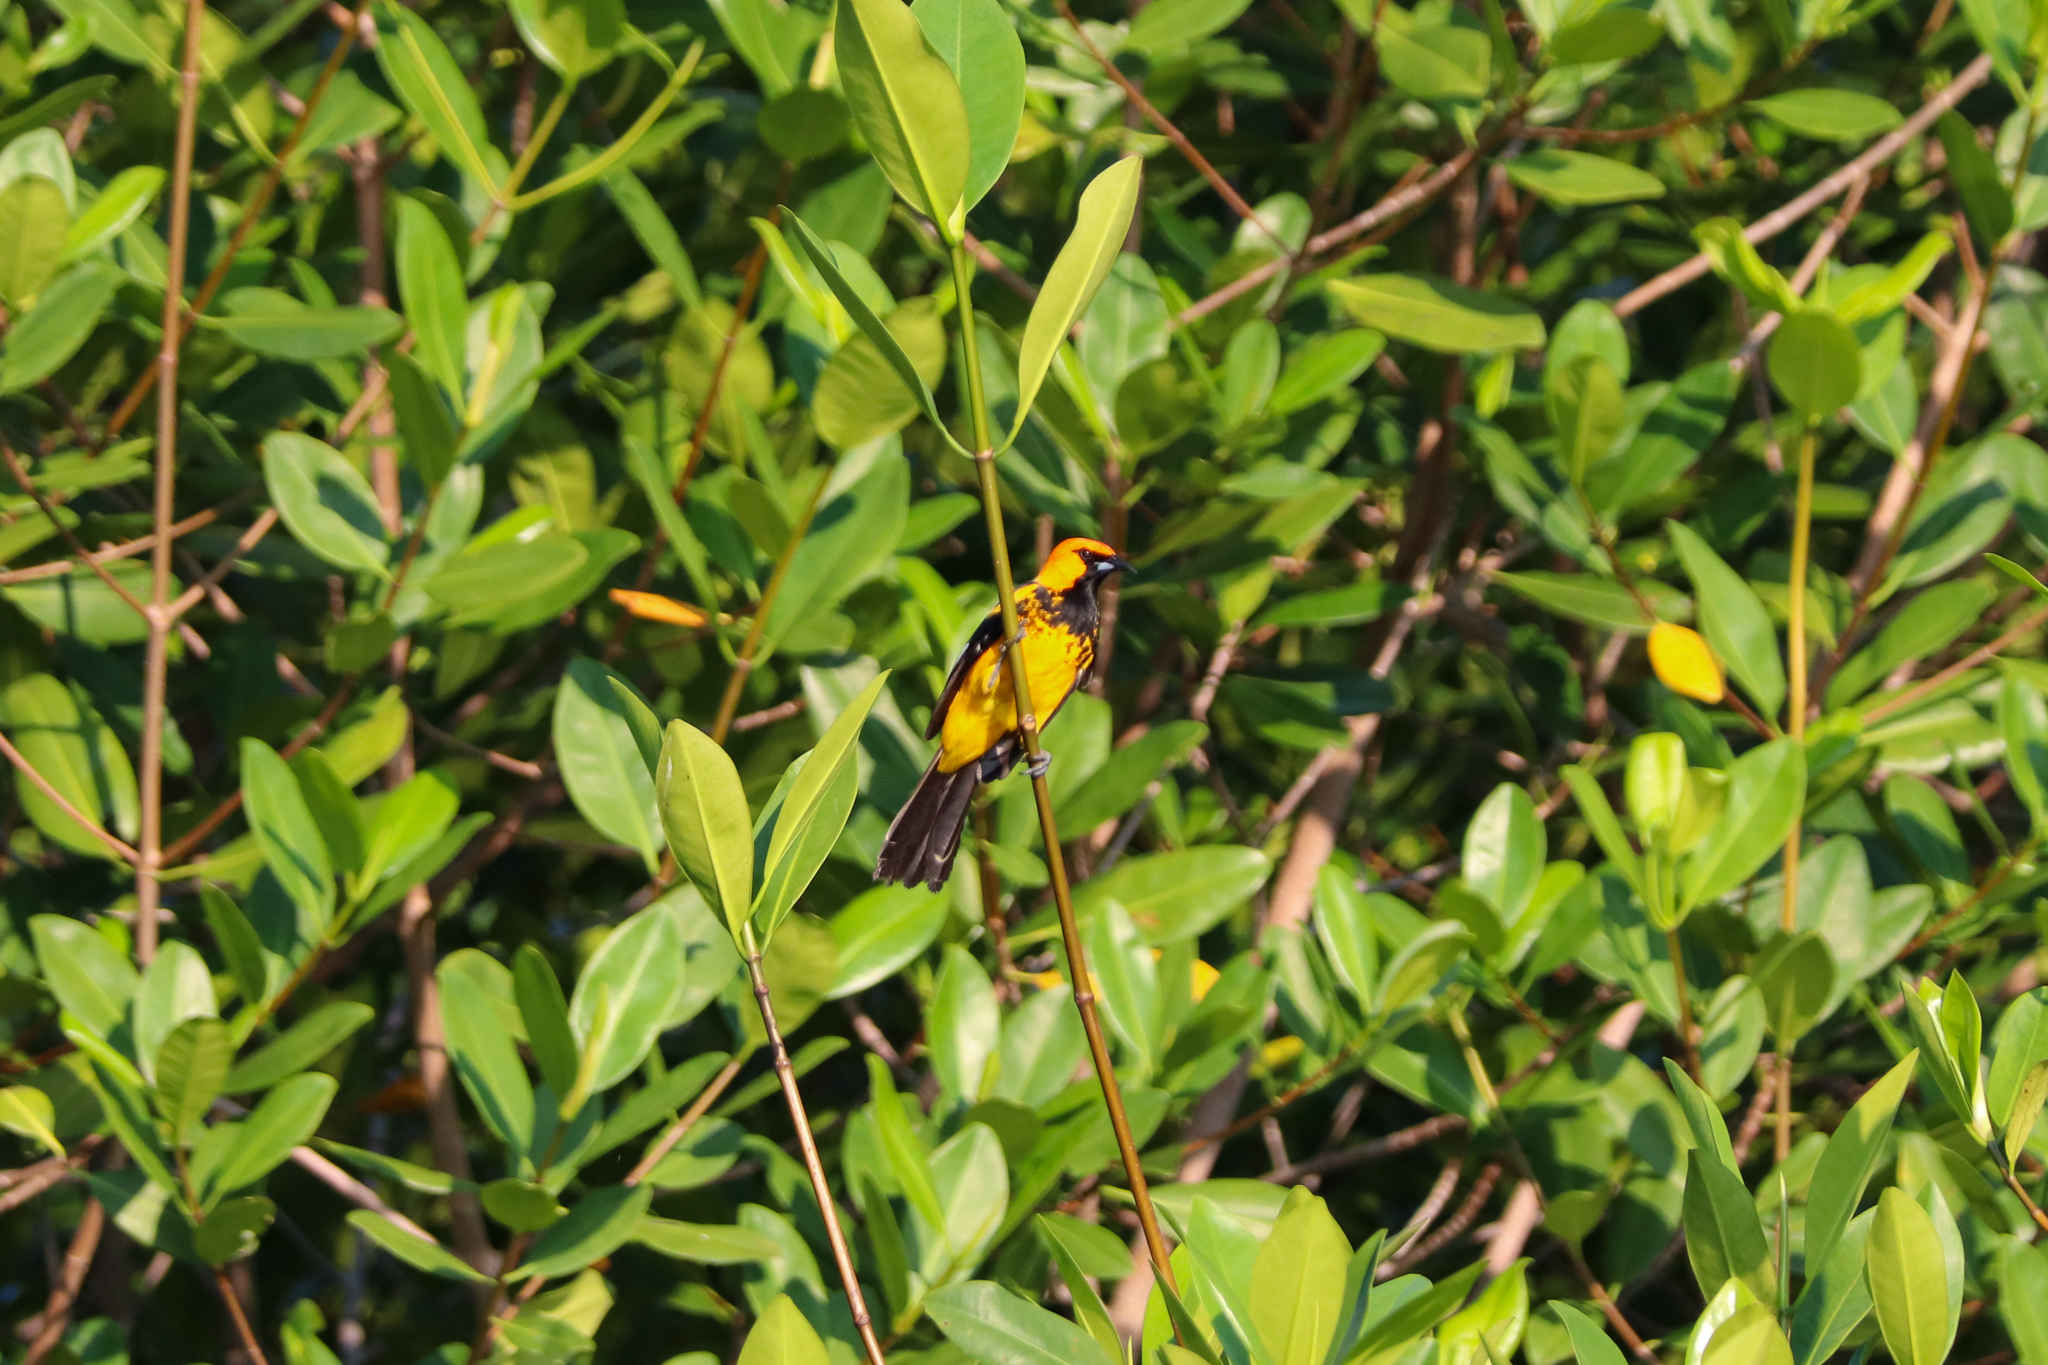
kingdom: Animalia
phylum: Chordata
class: Aves
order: Passeriformes
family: Icteridae
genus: Icterus
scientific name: Icterus pectoralis
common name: Spot-breasted oriole
